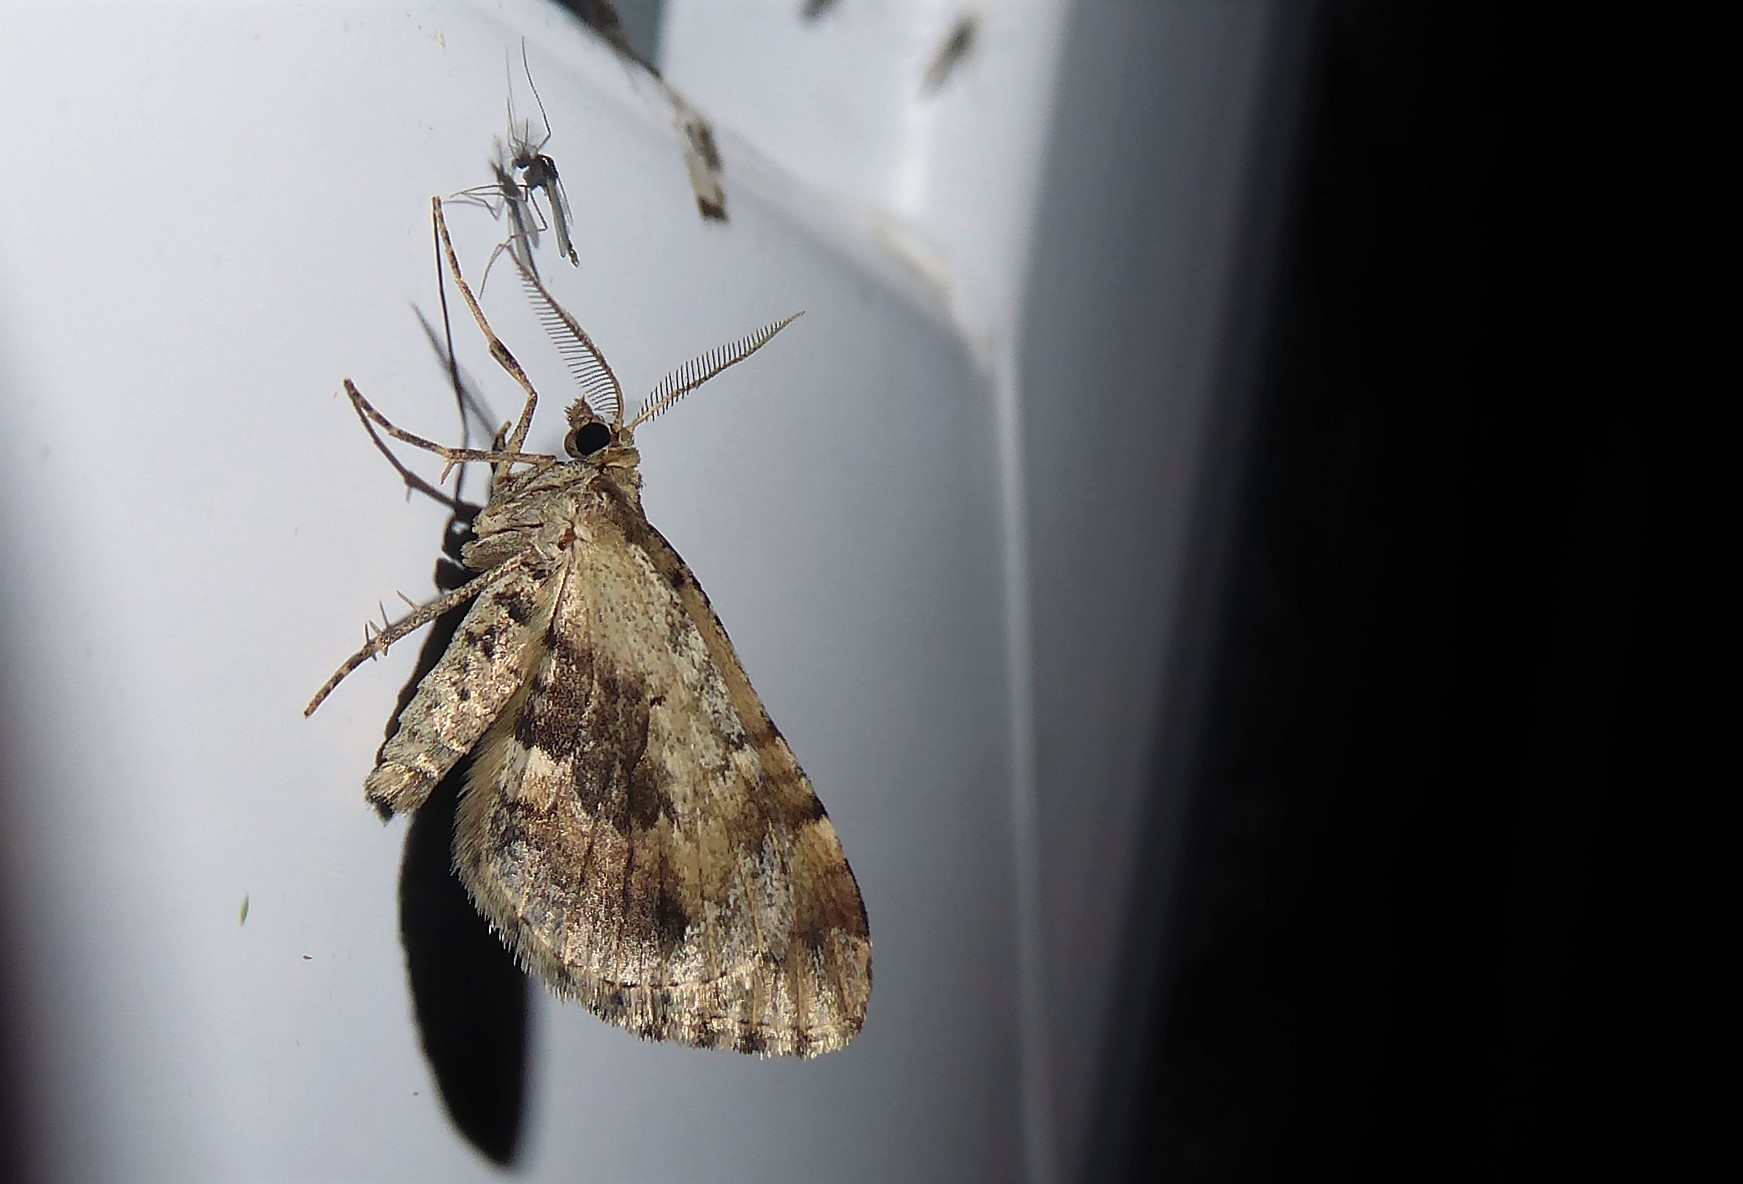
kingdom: Animalia
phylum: Arthropoda
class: Insecta
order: Lepidoptera
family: Geometridae
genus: Asaphodes
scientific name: Asaphodes aegrota
